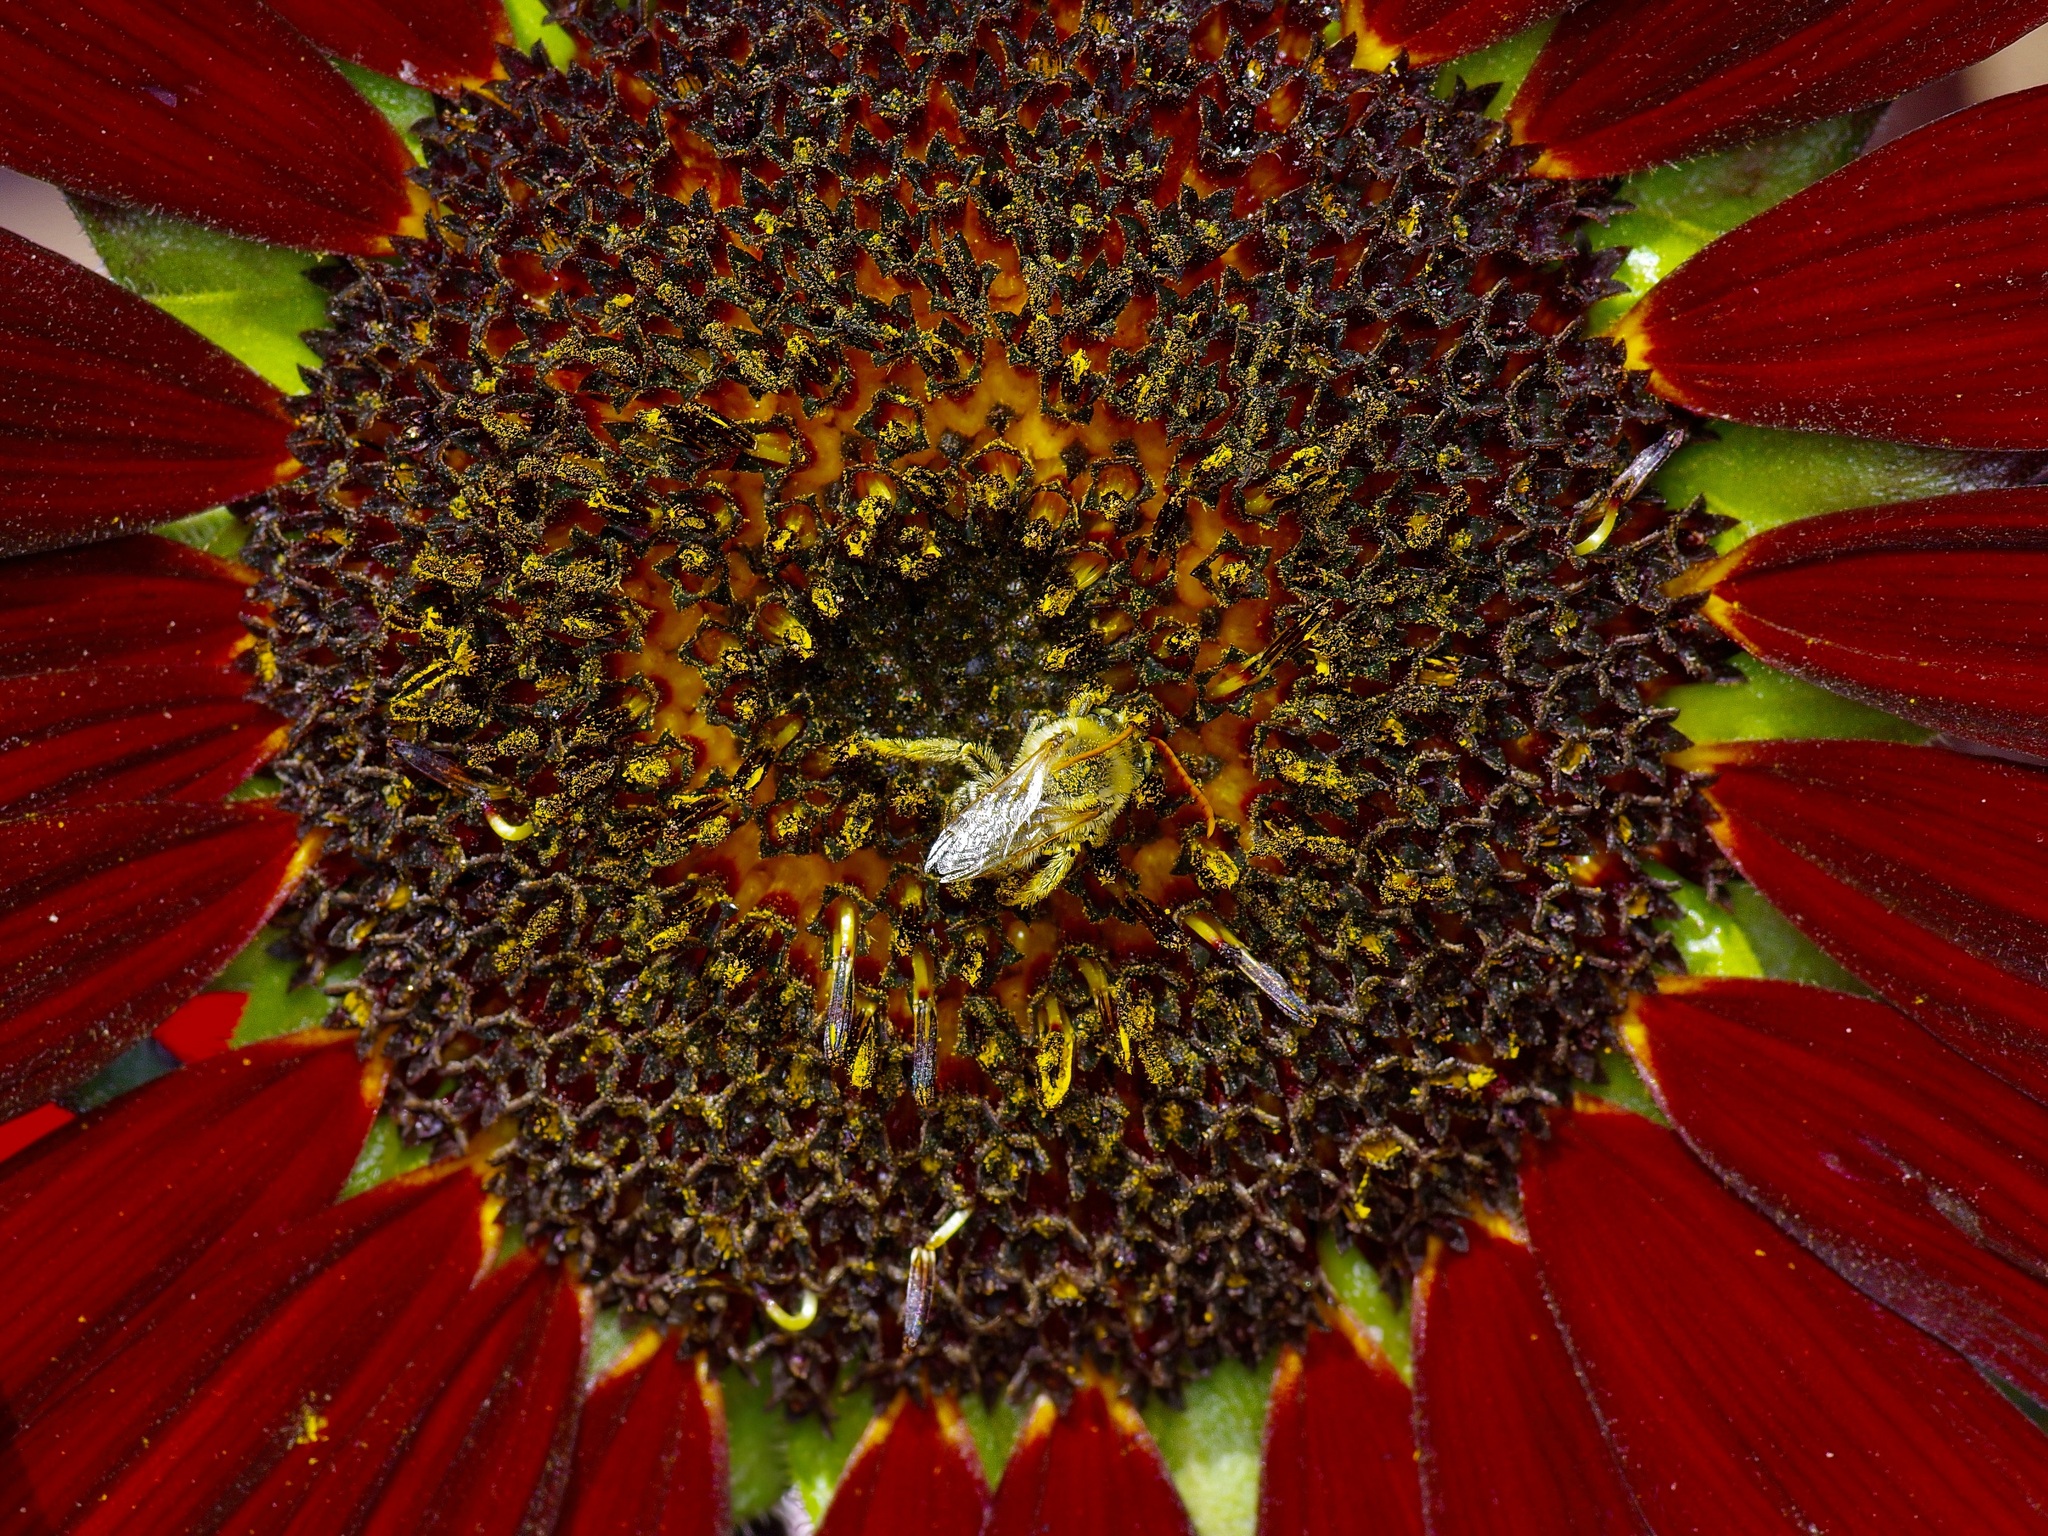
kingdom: Animalia
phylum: Arthropoda
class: Insecta
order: Hymenoptera
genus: Eumelissodes
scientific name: Eumelissodes
